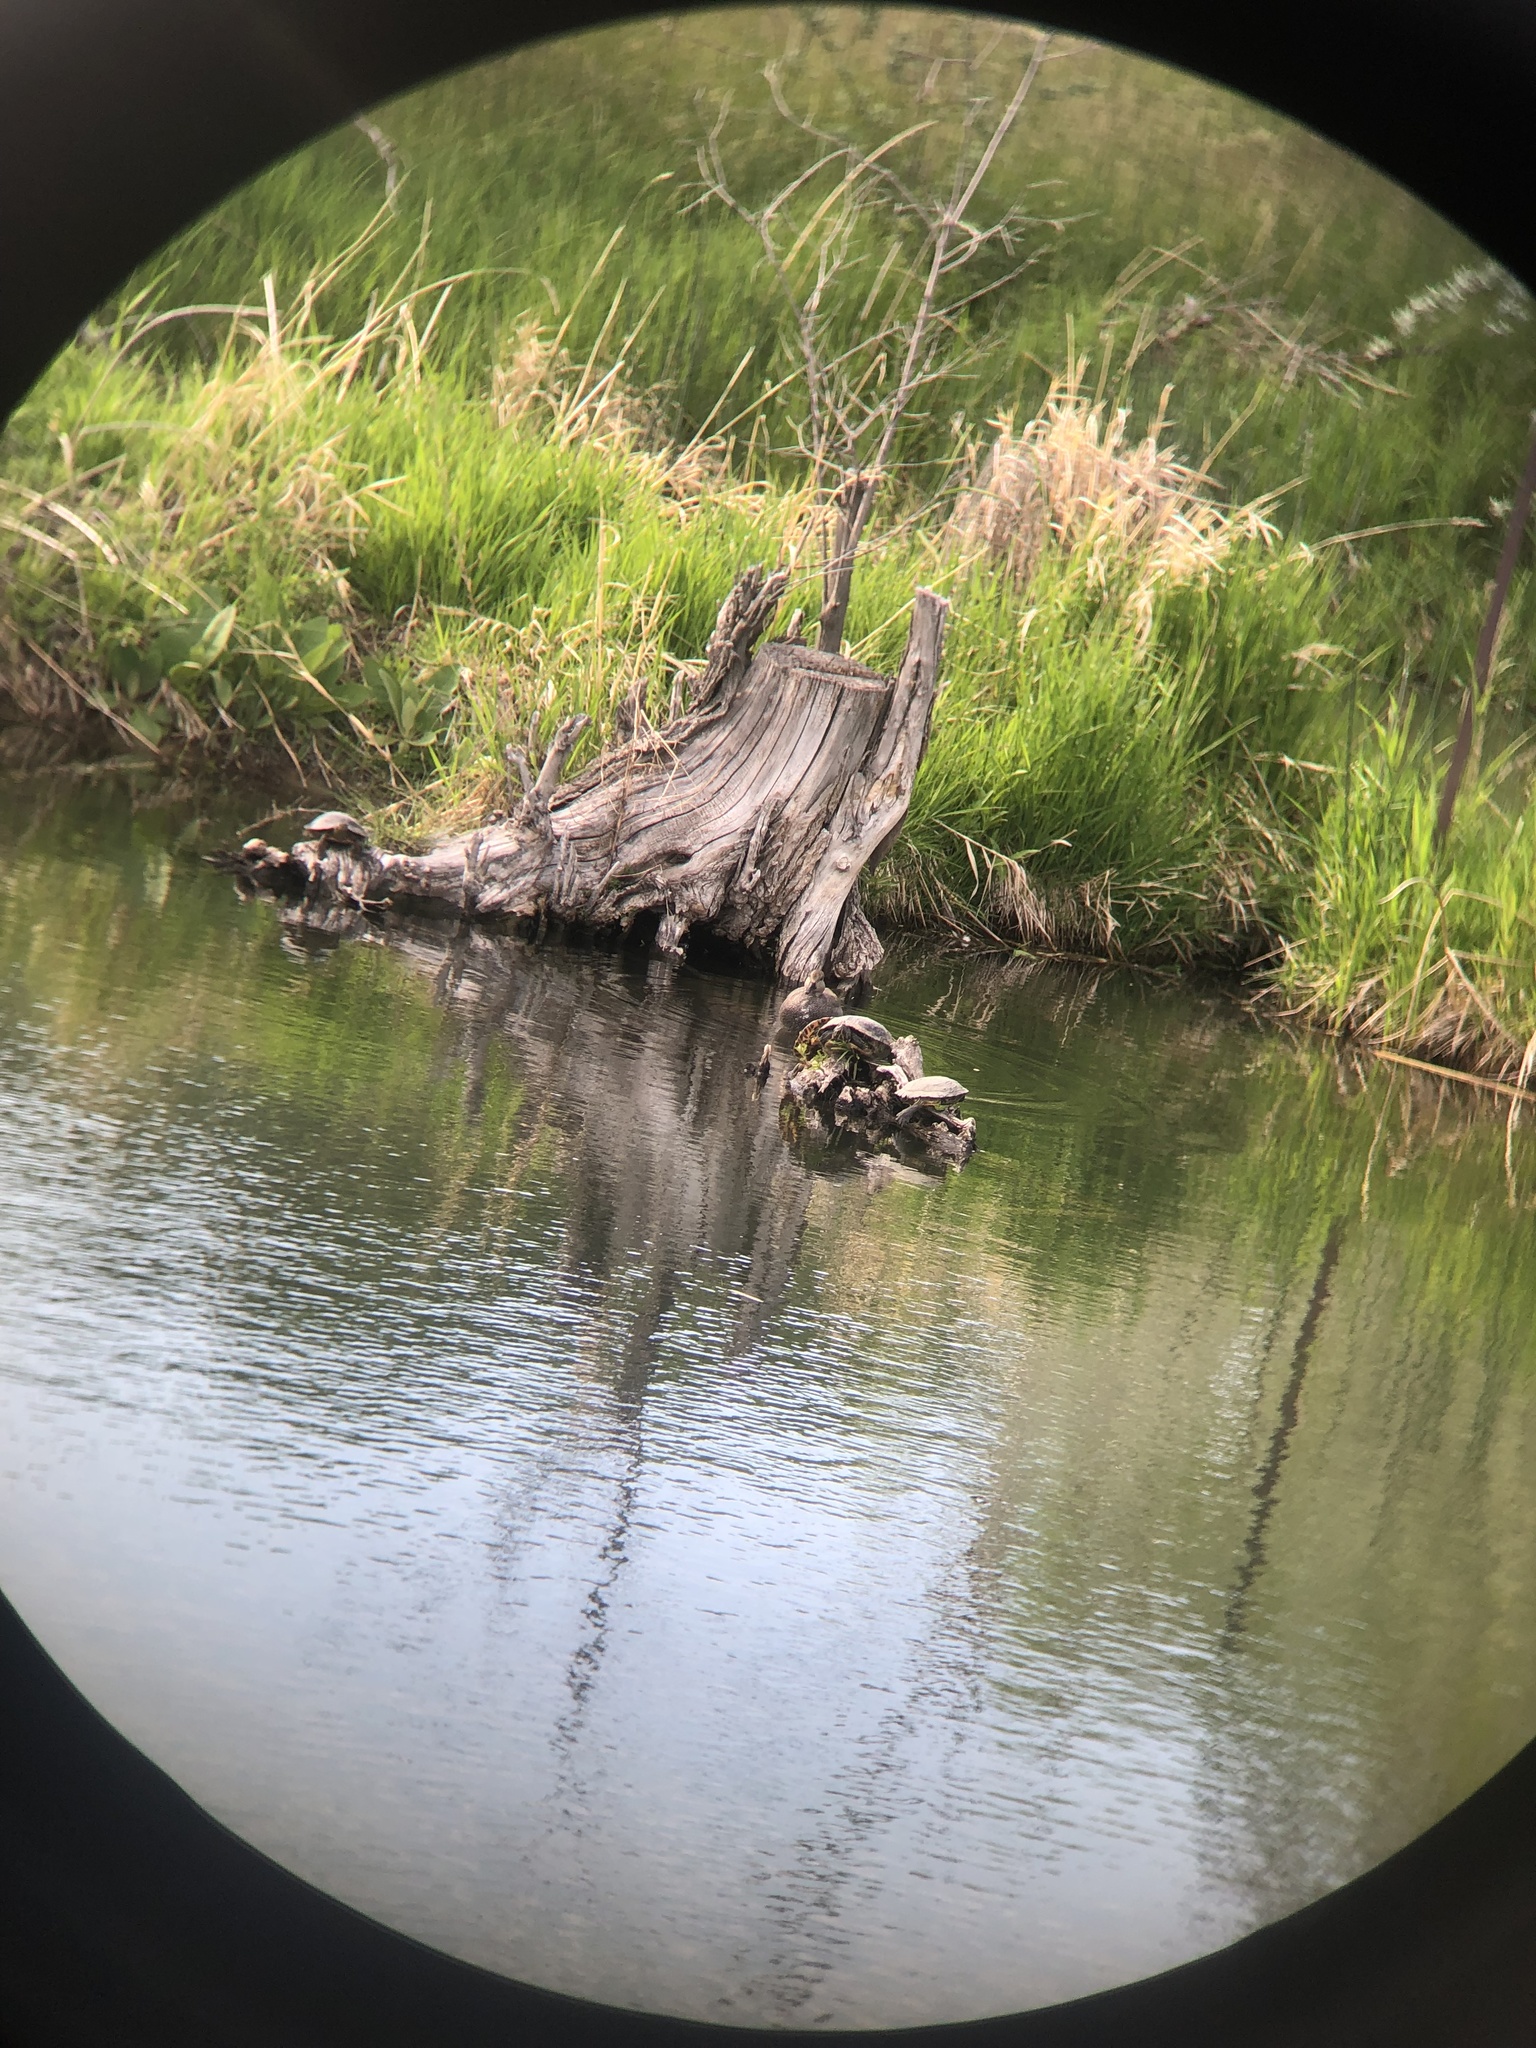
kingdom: Animalia
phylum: Chordata
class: Testudines
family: Emydidae
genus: Trachemys
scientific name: Trachemys scripta
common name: Slider
